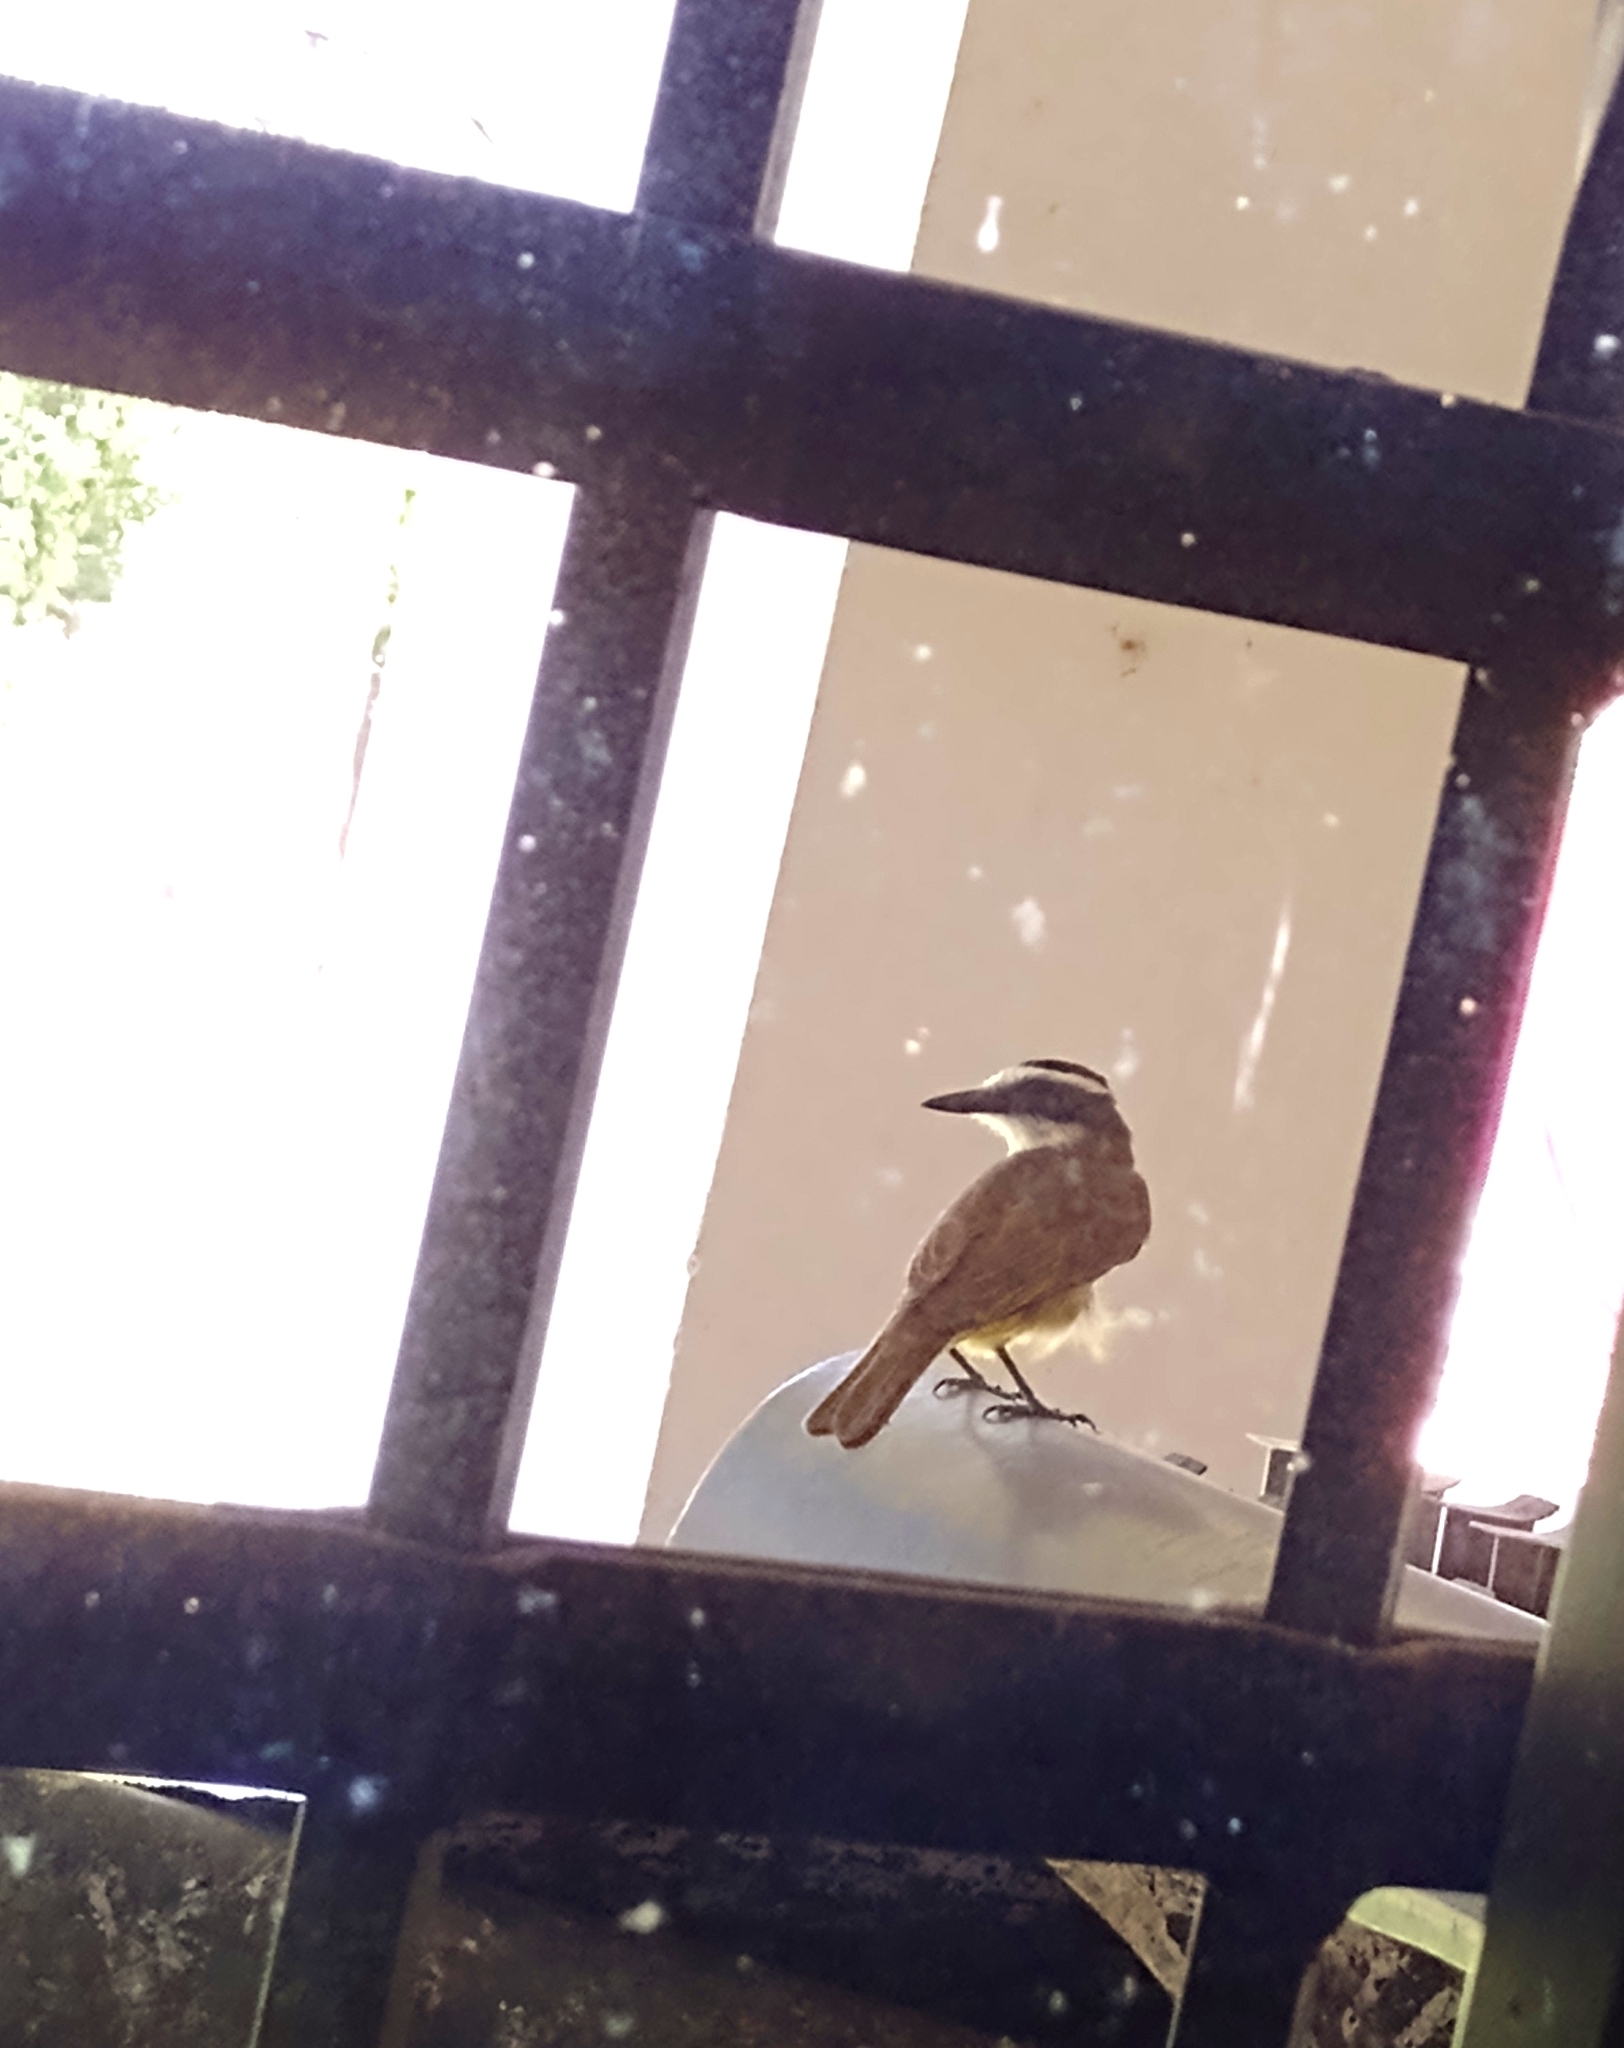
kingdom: Animalia
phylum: Chordata
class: Aves
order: Passeriformes
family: Tyrannidae
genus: Pitangus
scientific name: Pitangus sulphuratus
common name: Great kiskadee
